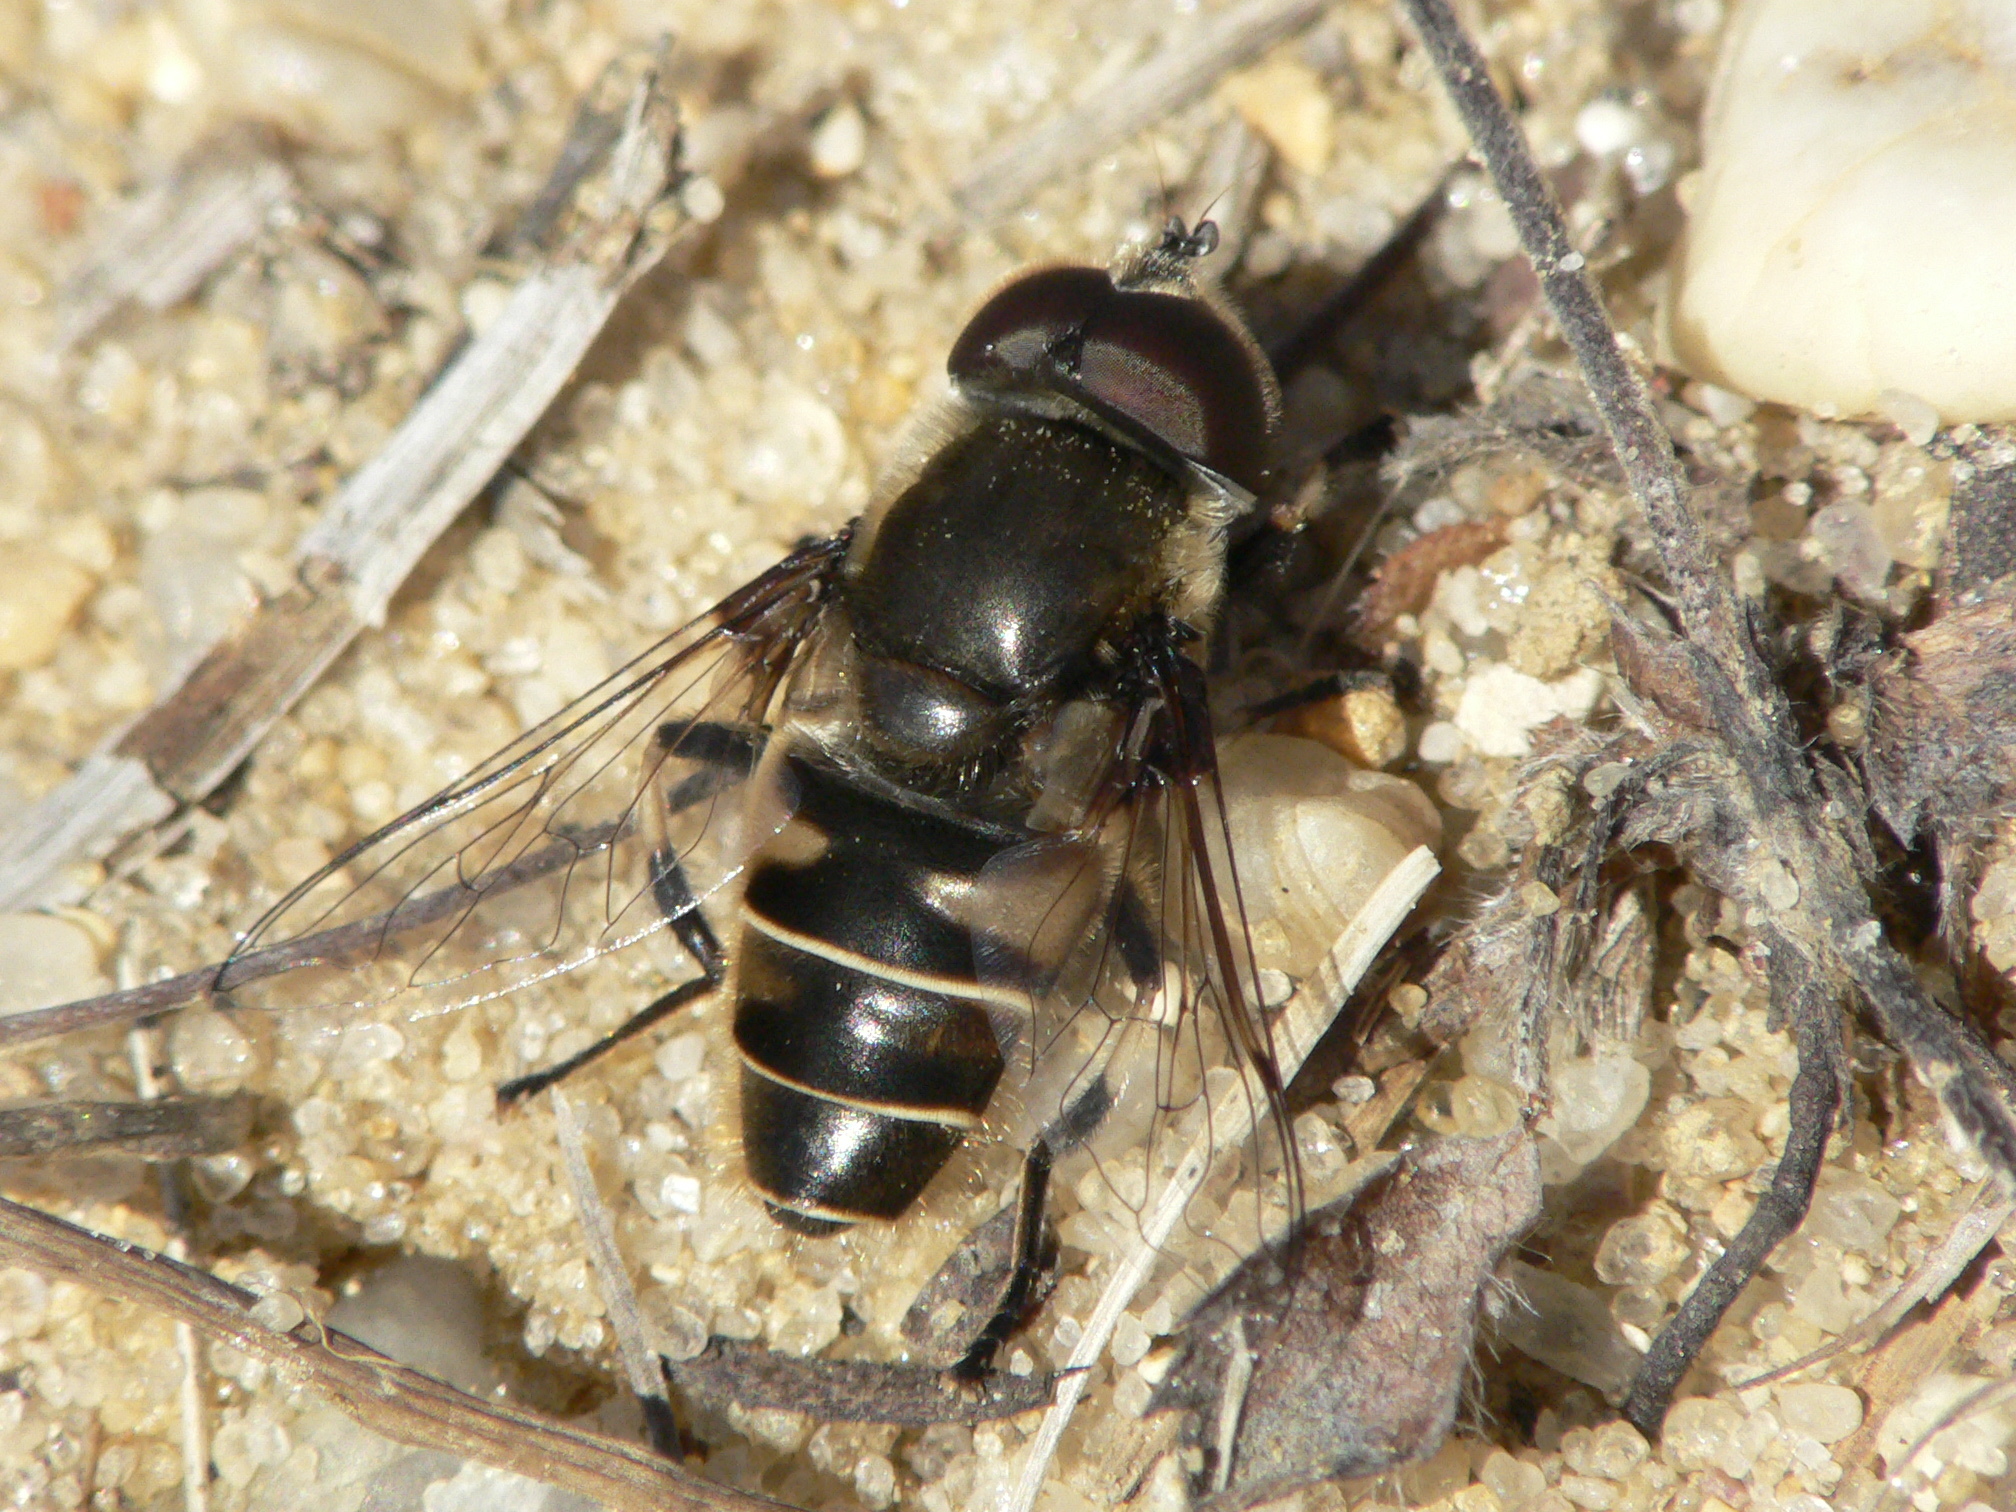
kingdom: Animalia
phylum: Arthropoda
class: Insecta
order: Diptera
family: Syrphidae
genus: Eristalis
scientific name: Eristalis dimidiata
